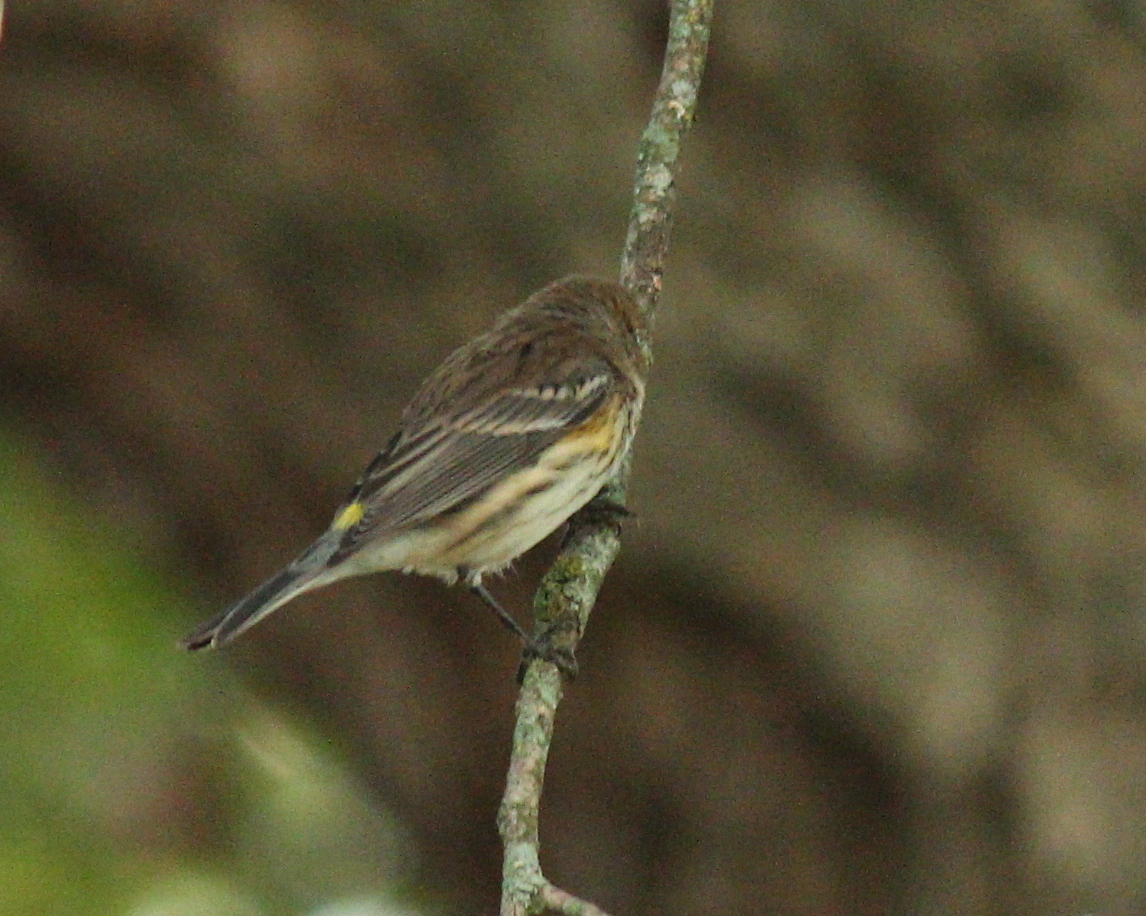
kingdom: Animalia
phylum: Chordata
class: Aves
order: Passeriformes
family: Parulidae
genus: Setophaga
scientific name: Setophaga coronata
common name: Myrtle warbler
